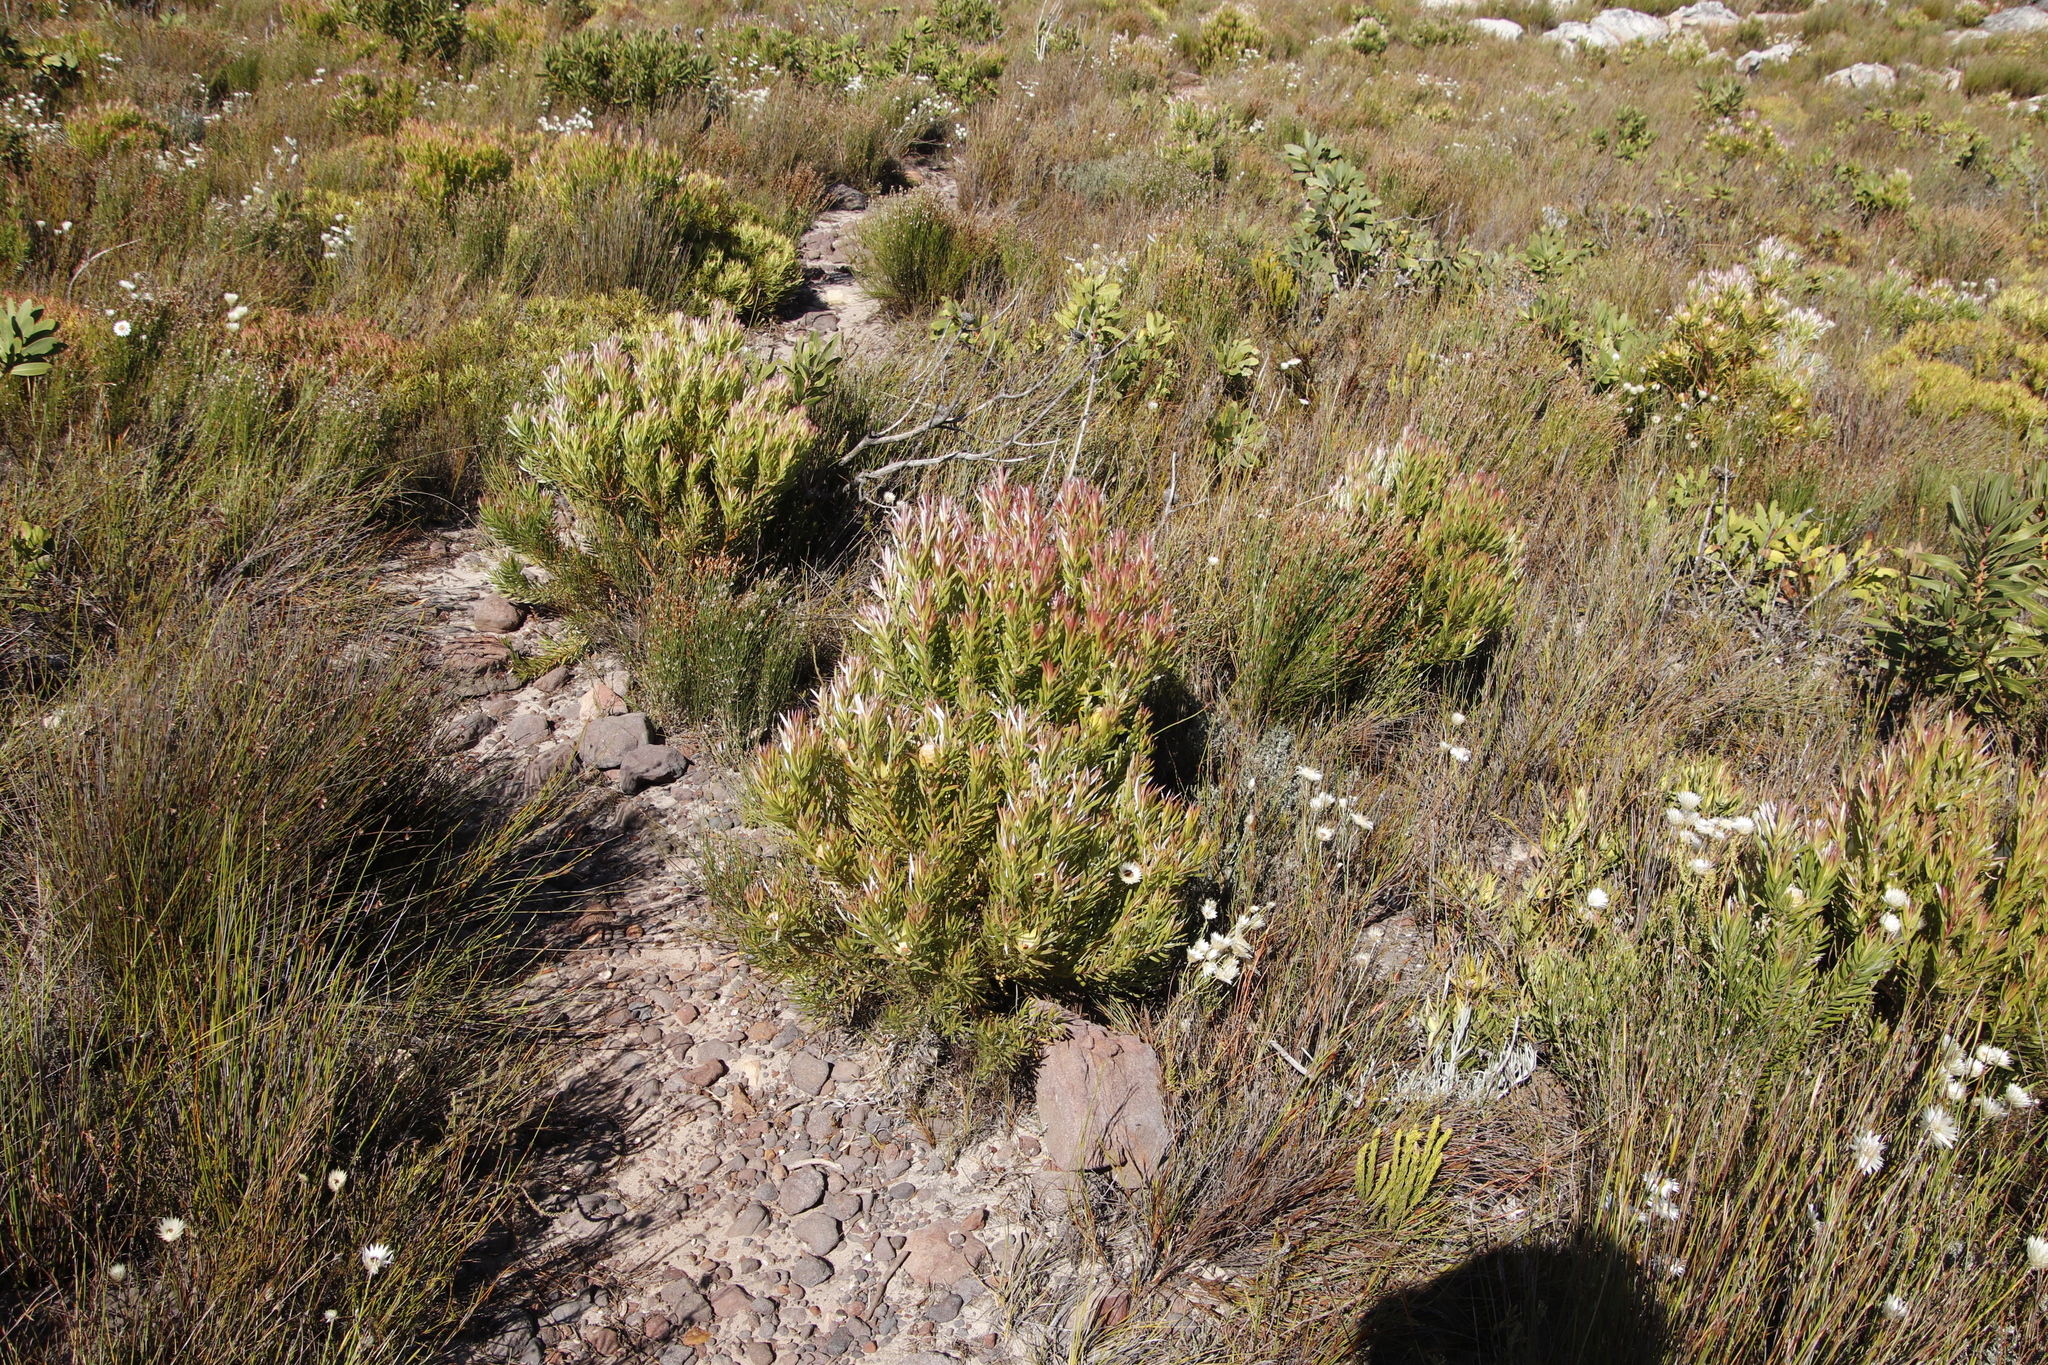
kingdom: Plantae
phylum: Tracheophyta
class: Magnoliopsida
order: Proteales
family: Proteaceae
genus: Leucadendron
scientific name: Leucadendron xanthoconus
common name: Sickle-leaf conebush
